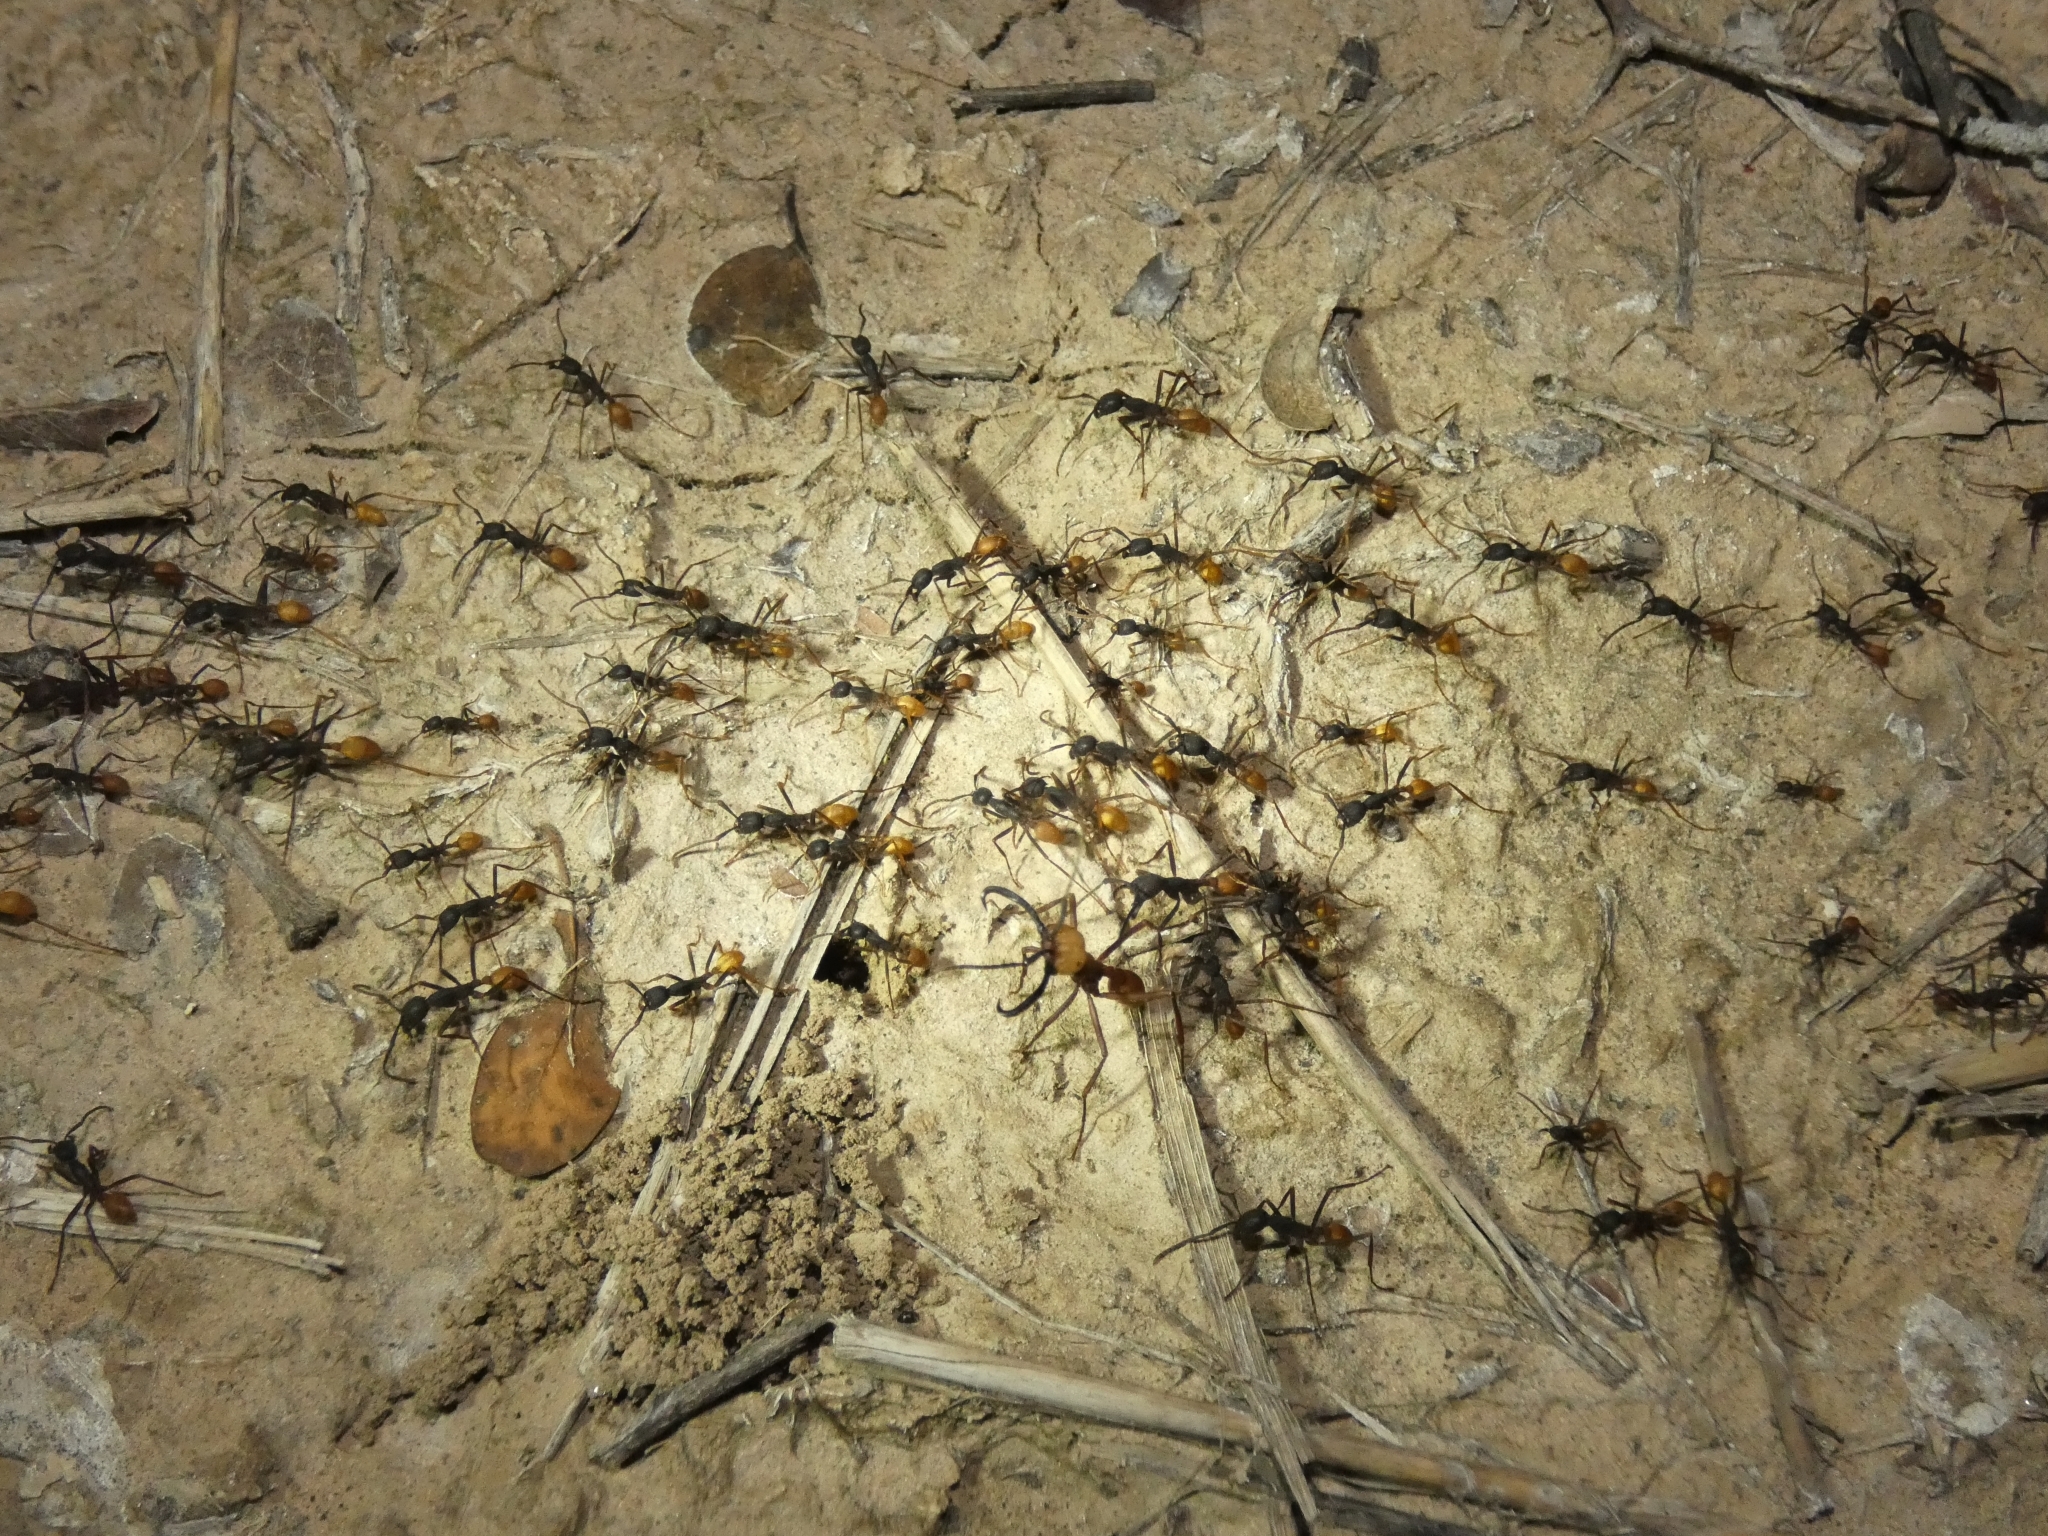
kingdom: Animalia
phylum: Arthropoda
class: Insecta
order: Hymenoptera
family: Formicidae
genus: Eciton
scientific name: Eciton burchellii
